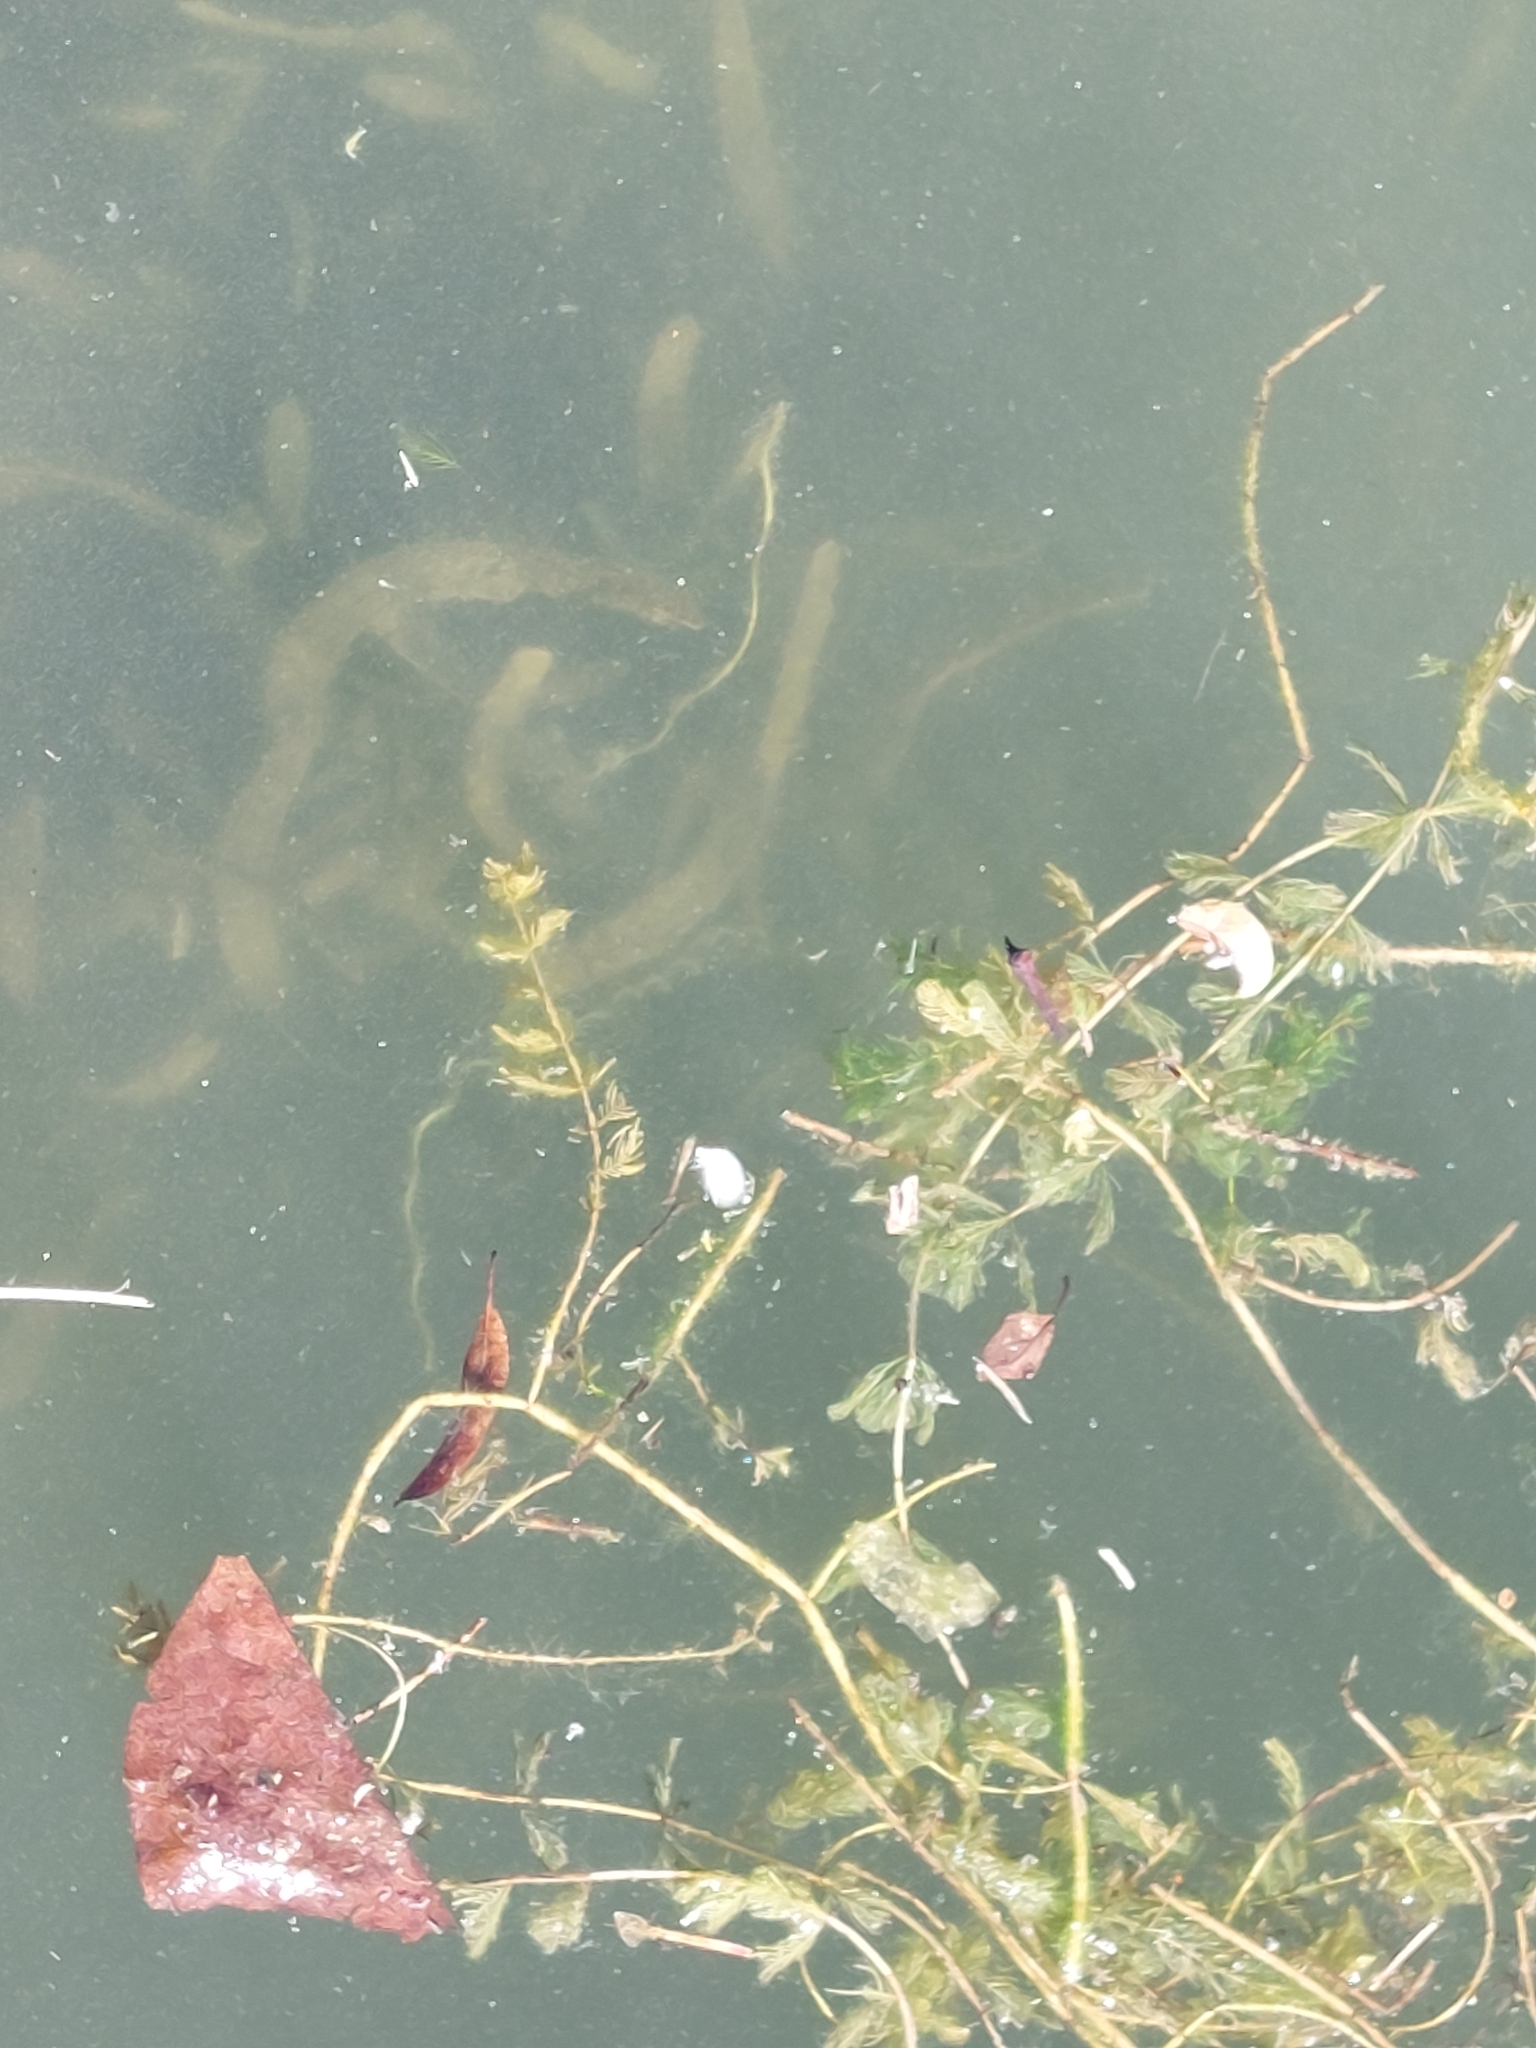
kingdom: Plantae
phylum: Tracheophyta
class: Magnoliopsida
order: Saxifragales
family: Haloragaceae
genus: Myriophyllum
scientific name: Myriophyllum spicatum
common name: Spiked water-milfoil
